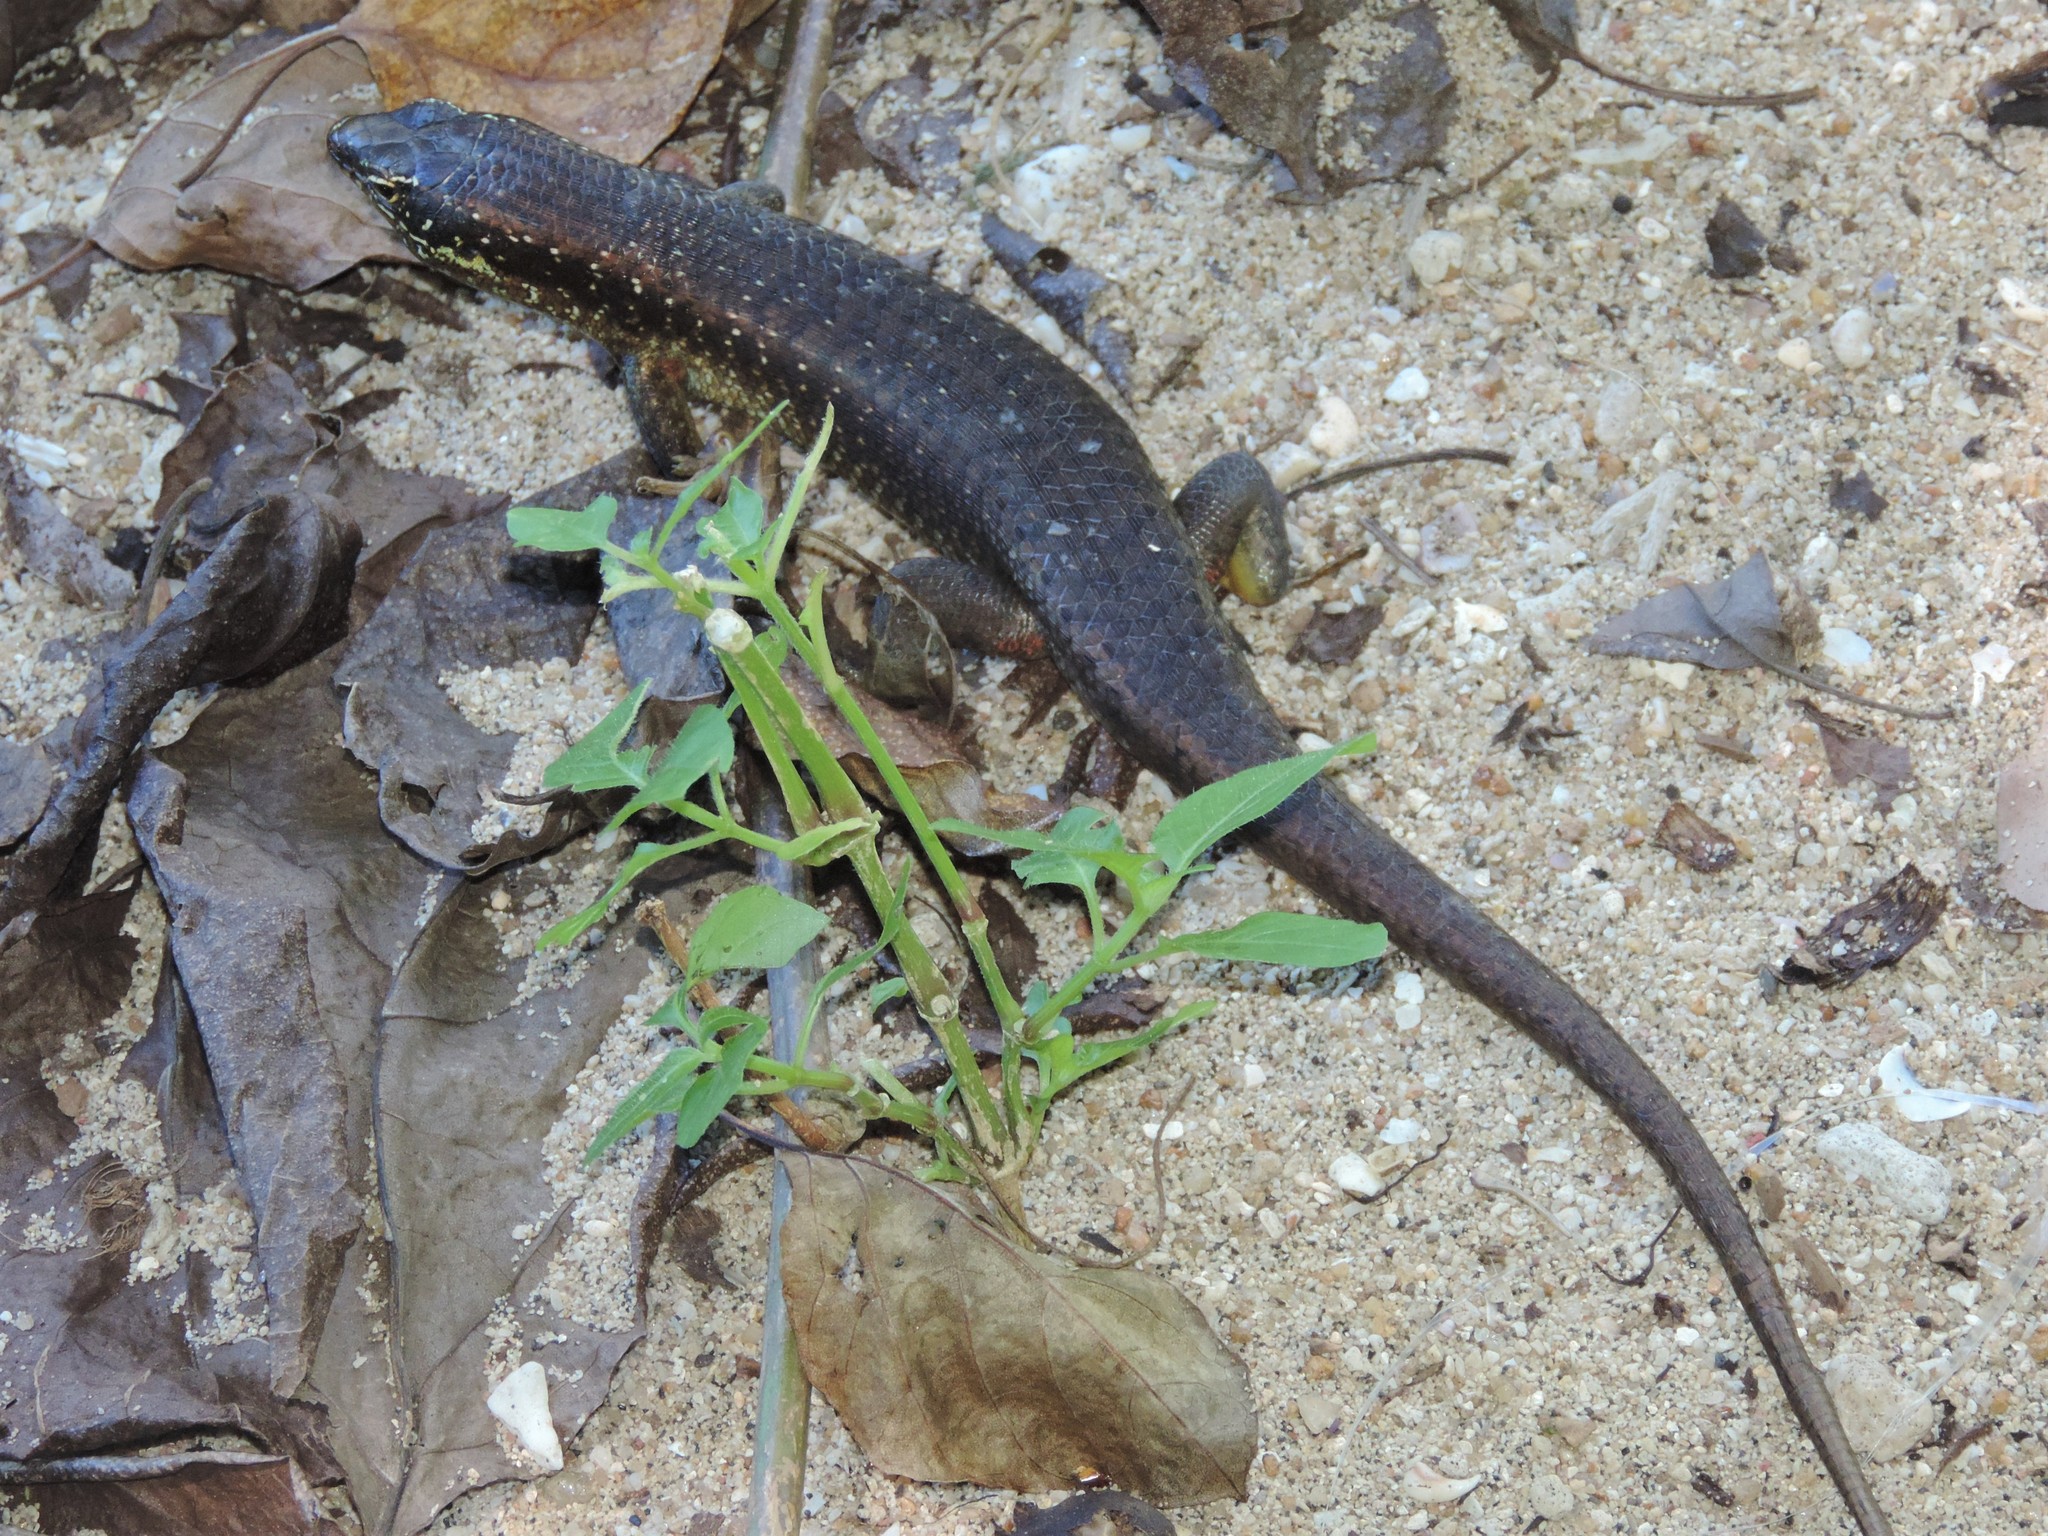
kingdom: Animalia
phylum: Chordata
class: Squamata
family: Scincidae
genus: Trachylepis
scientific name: Trachylepis comorensis
